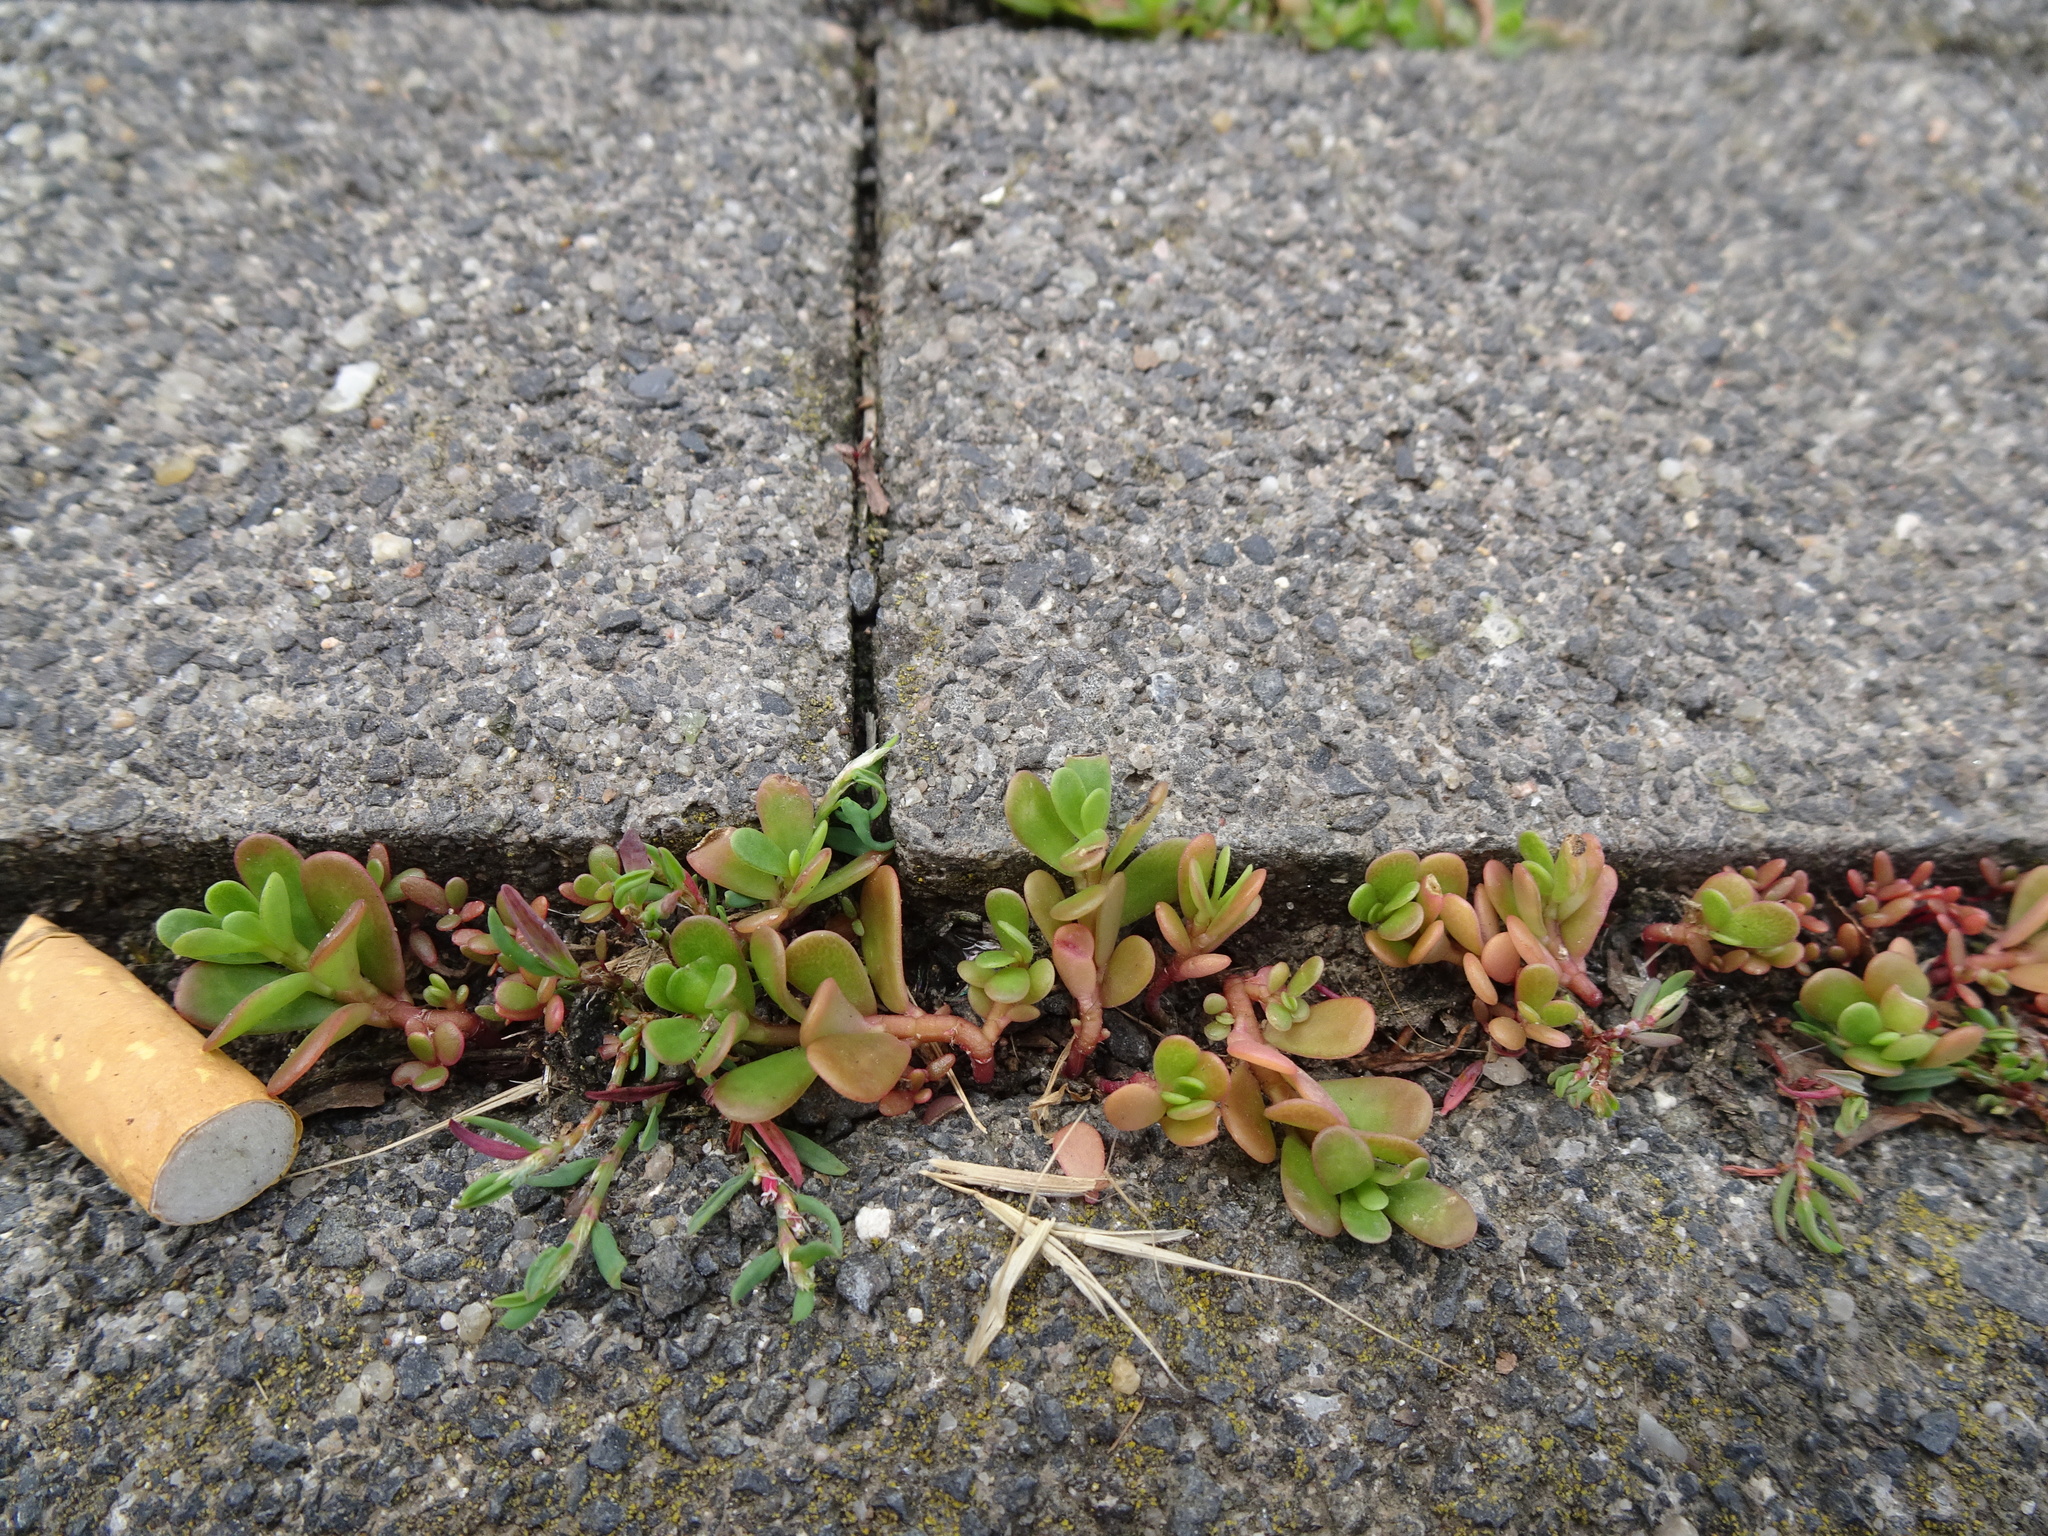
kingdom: Plantae
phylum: Tracheophyta
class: Magnoliopsida
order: Caryophyllales
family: Portulacaceae
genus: Portulaca
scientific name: Portulaca oleracea
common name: Common purslane
